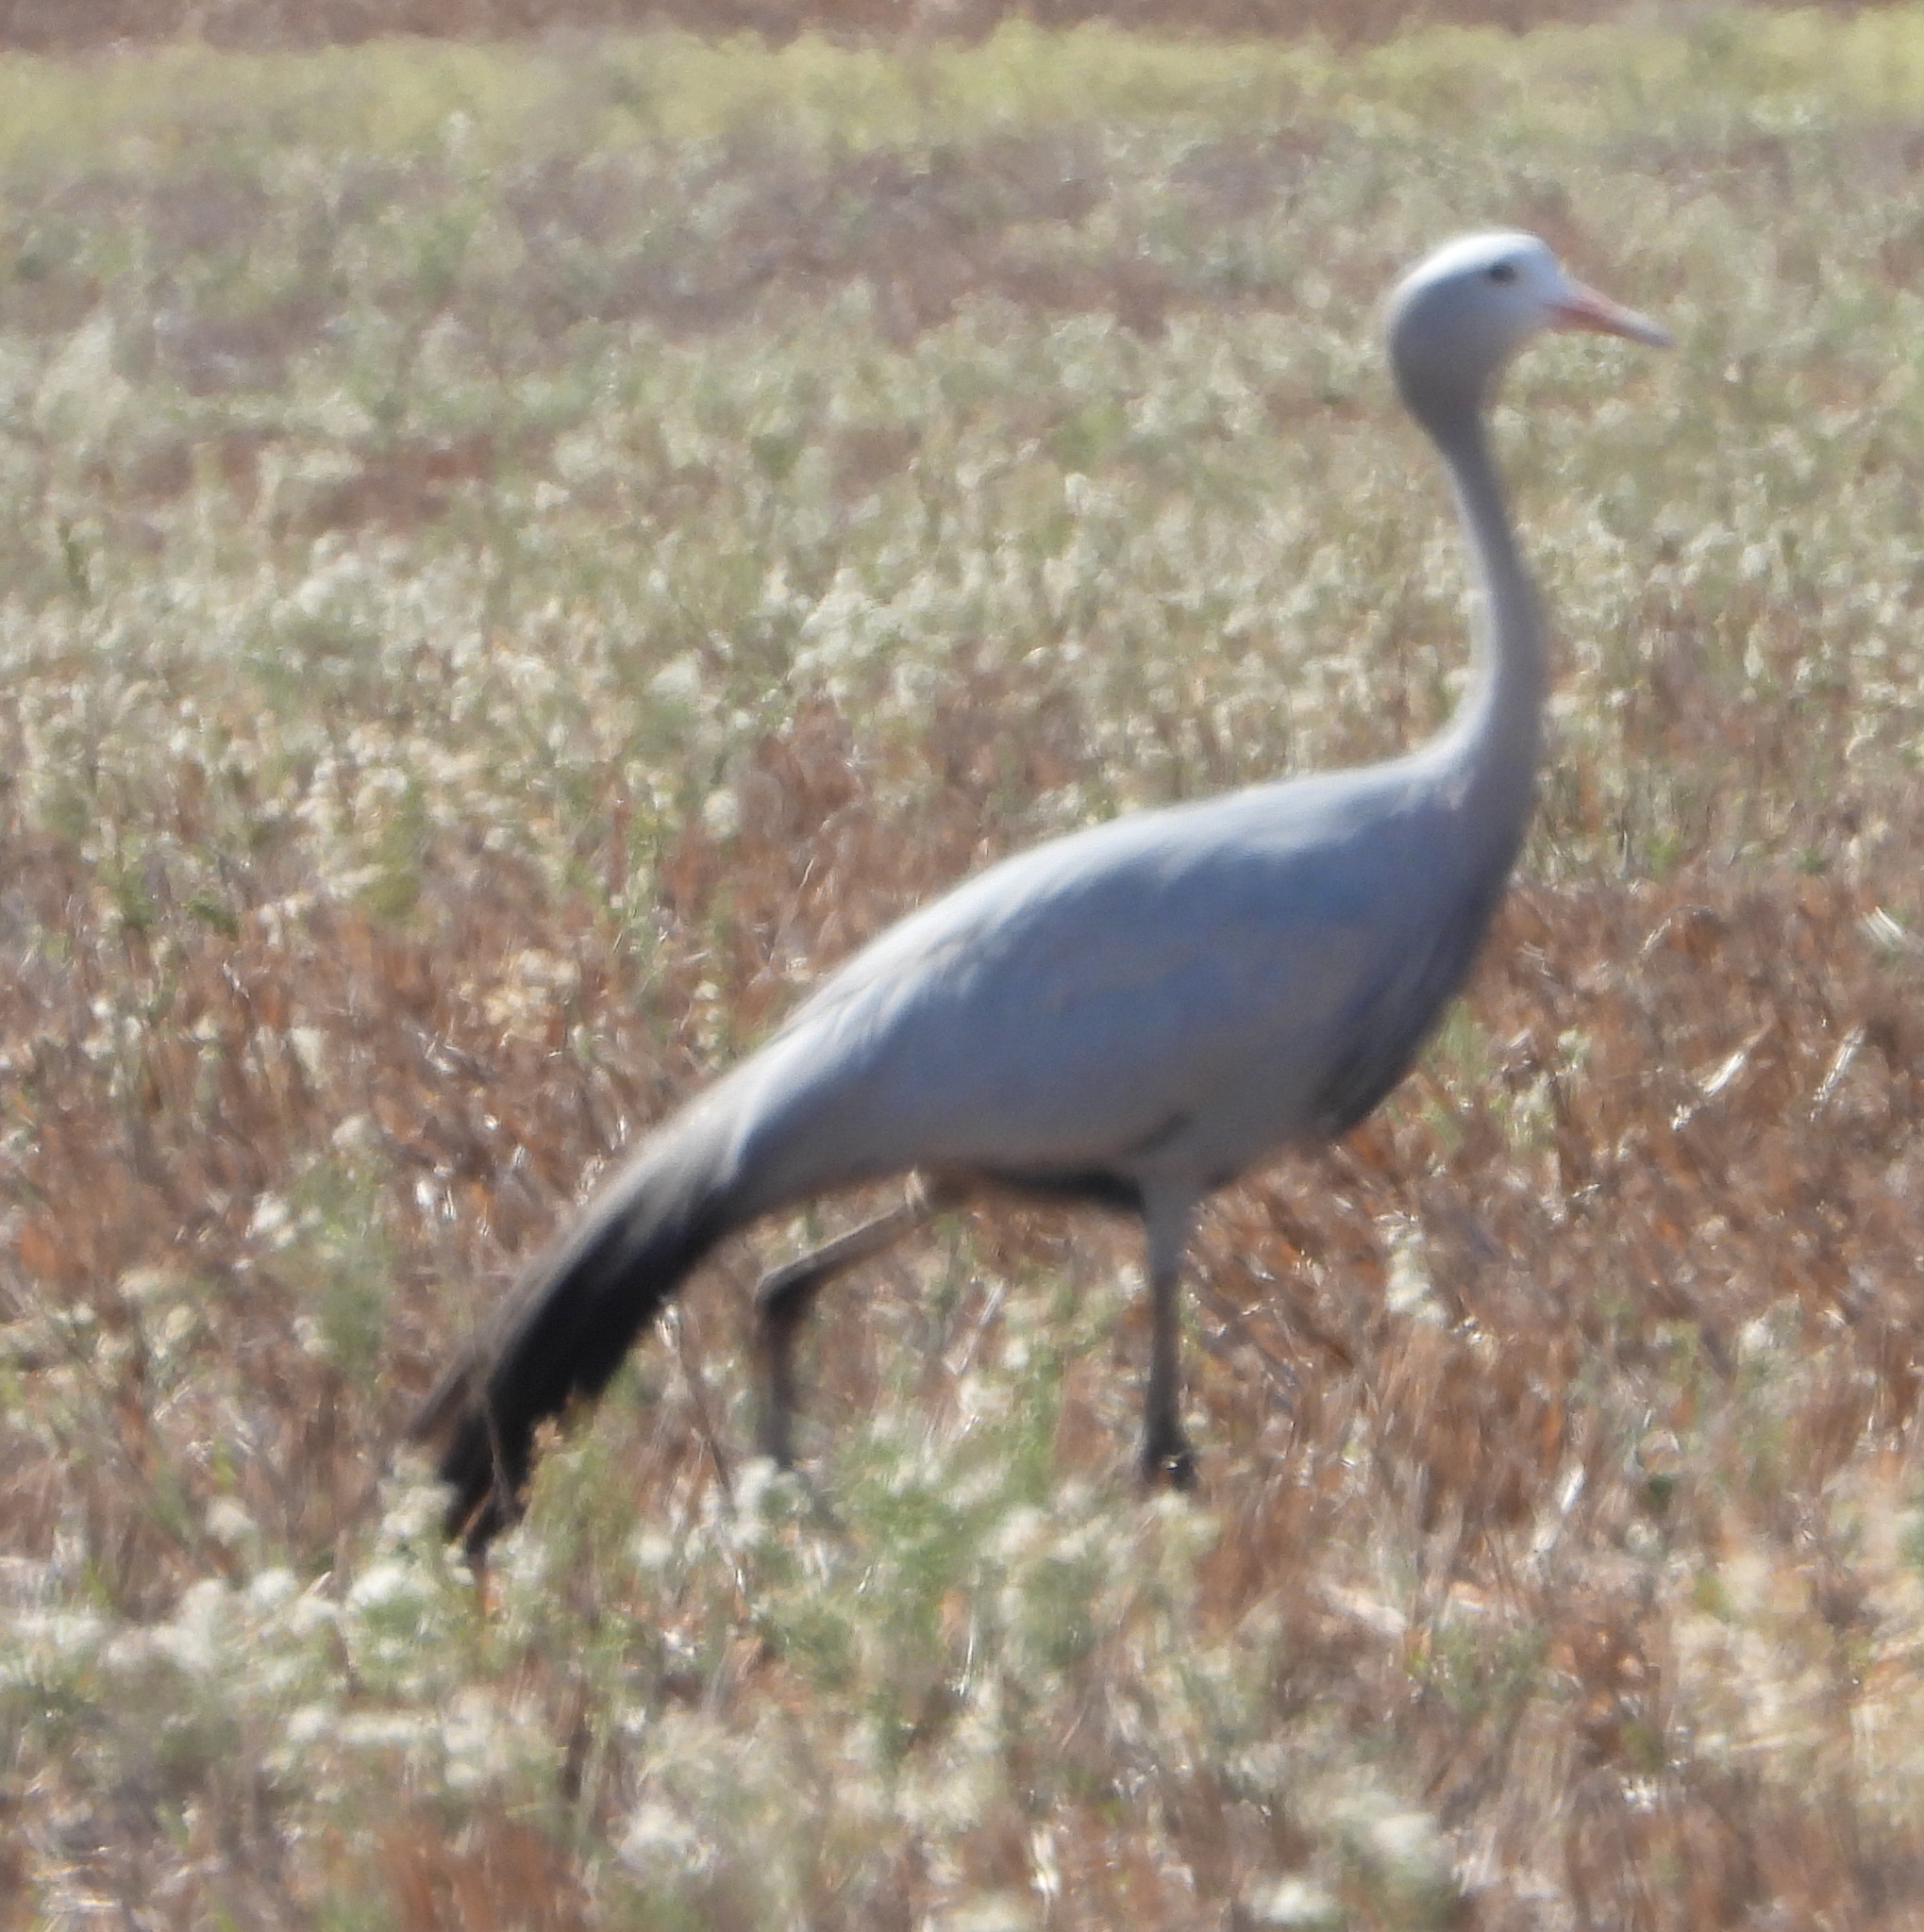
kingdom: Animalia
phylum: Chordata
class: Aves
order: Gruiformes
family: Gruidae
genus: Anthropoides
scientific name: Anthropoides paradiseus
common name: Blue crane
